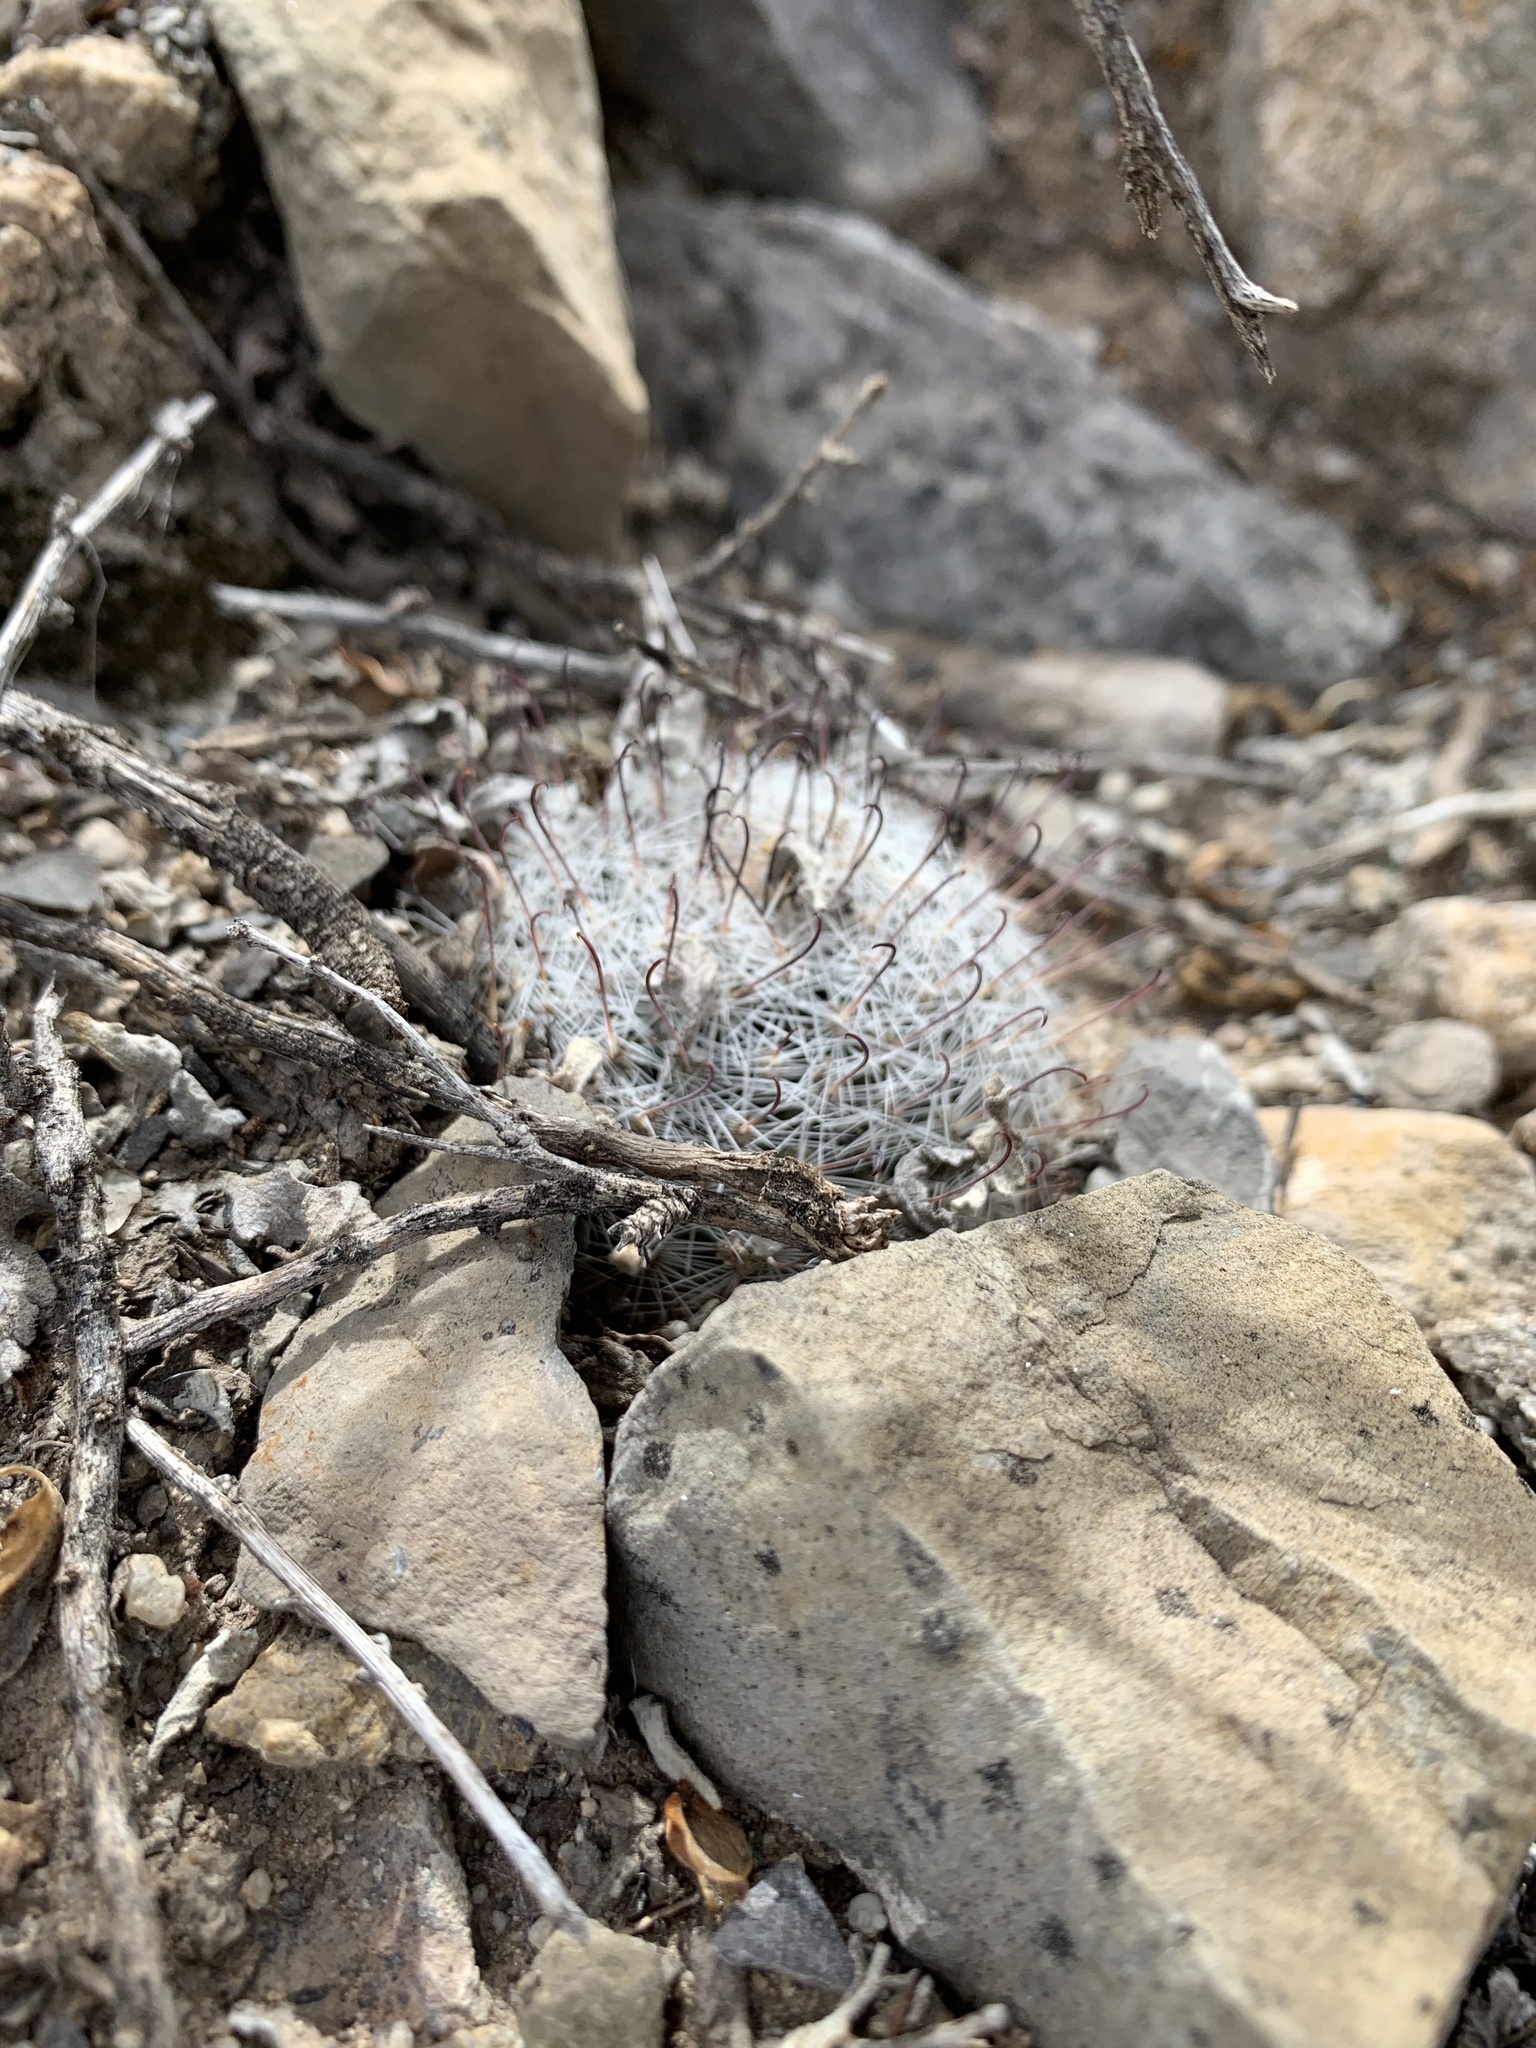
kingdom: Plantae
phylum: Tracheophyta
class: Magnoliopsida
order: Caryophyllales
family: Cactaceae
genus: Cochemiea
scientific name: Cochemiea grahamii
